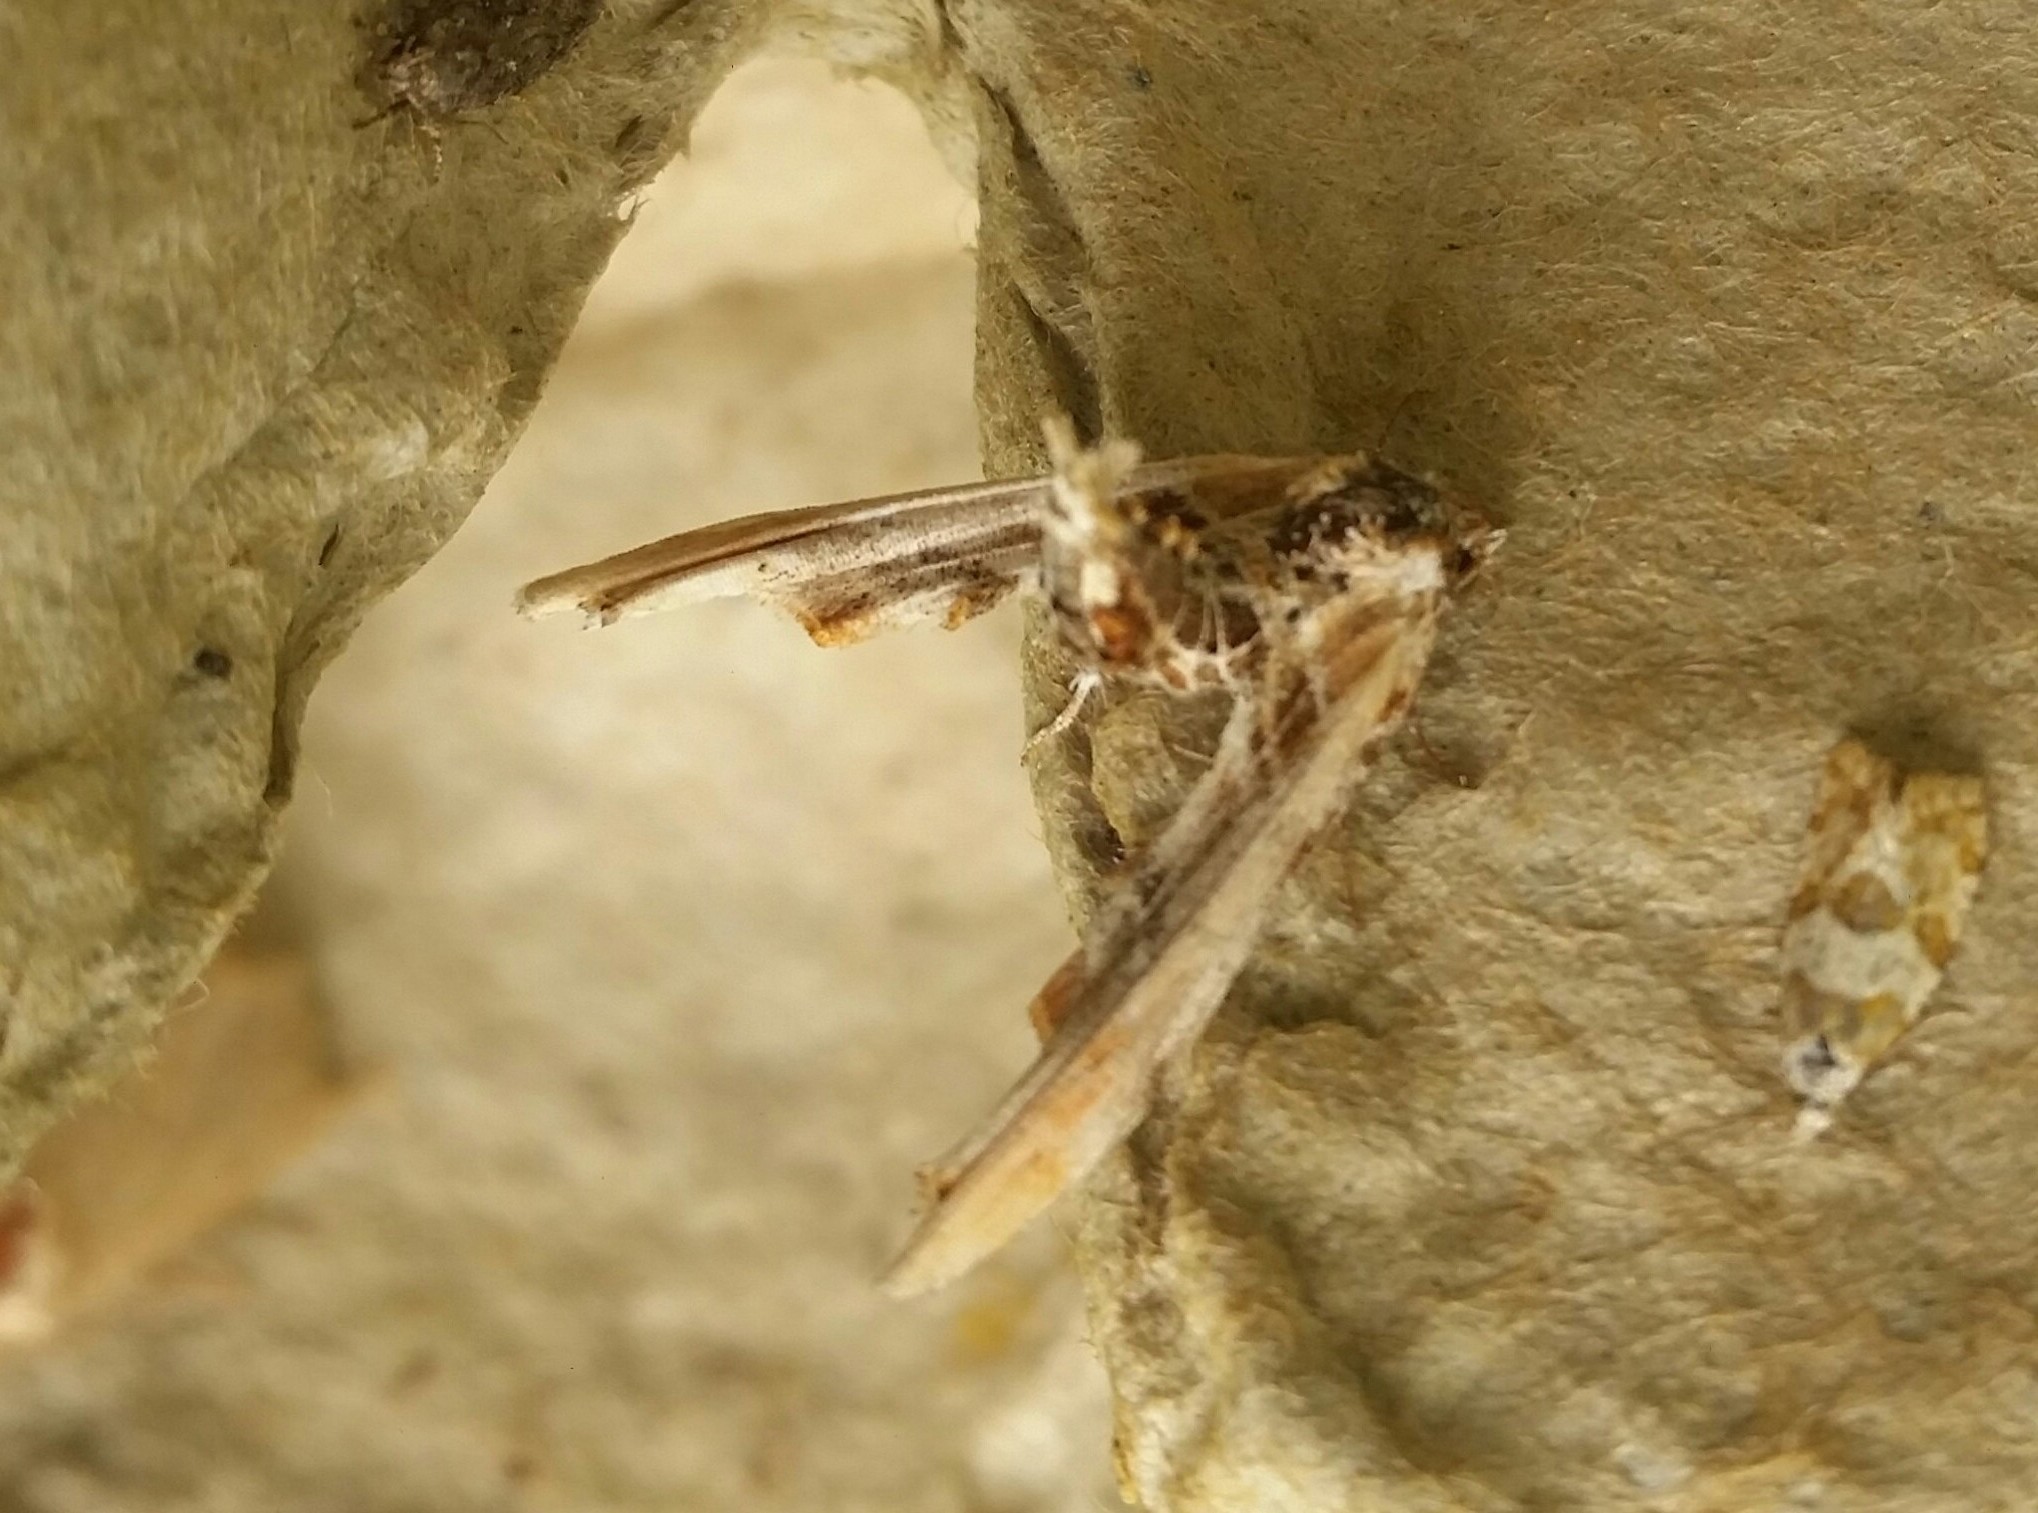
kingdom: Animalia
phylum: Arthropoda
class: Insecta
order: Lepidoptera
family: Euteliidae
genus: Marathyssa
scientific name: Marathyssa basalis
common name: Light marathyssa moth
